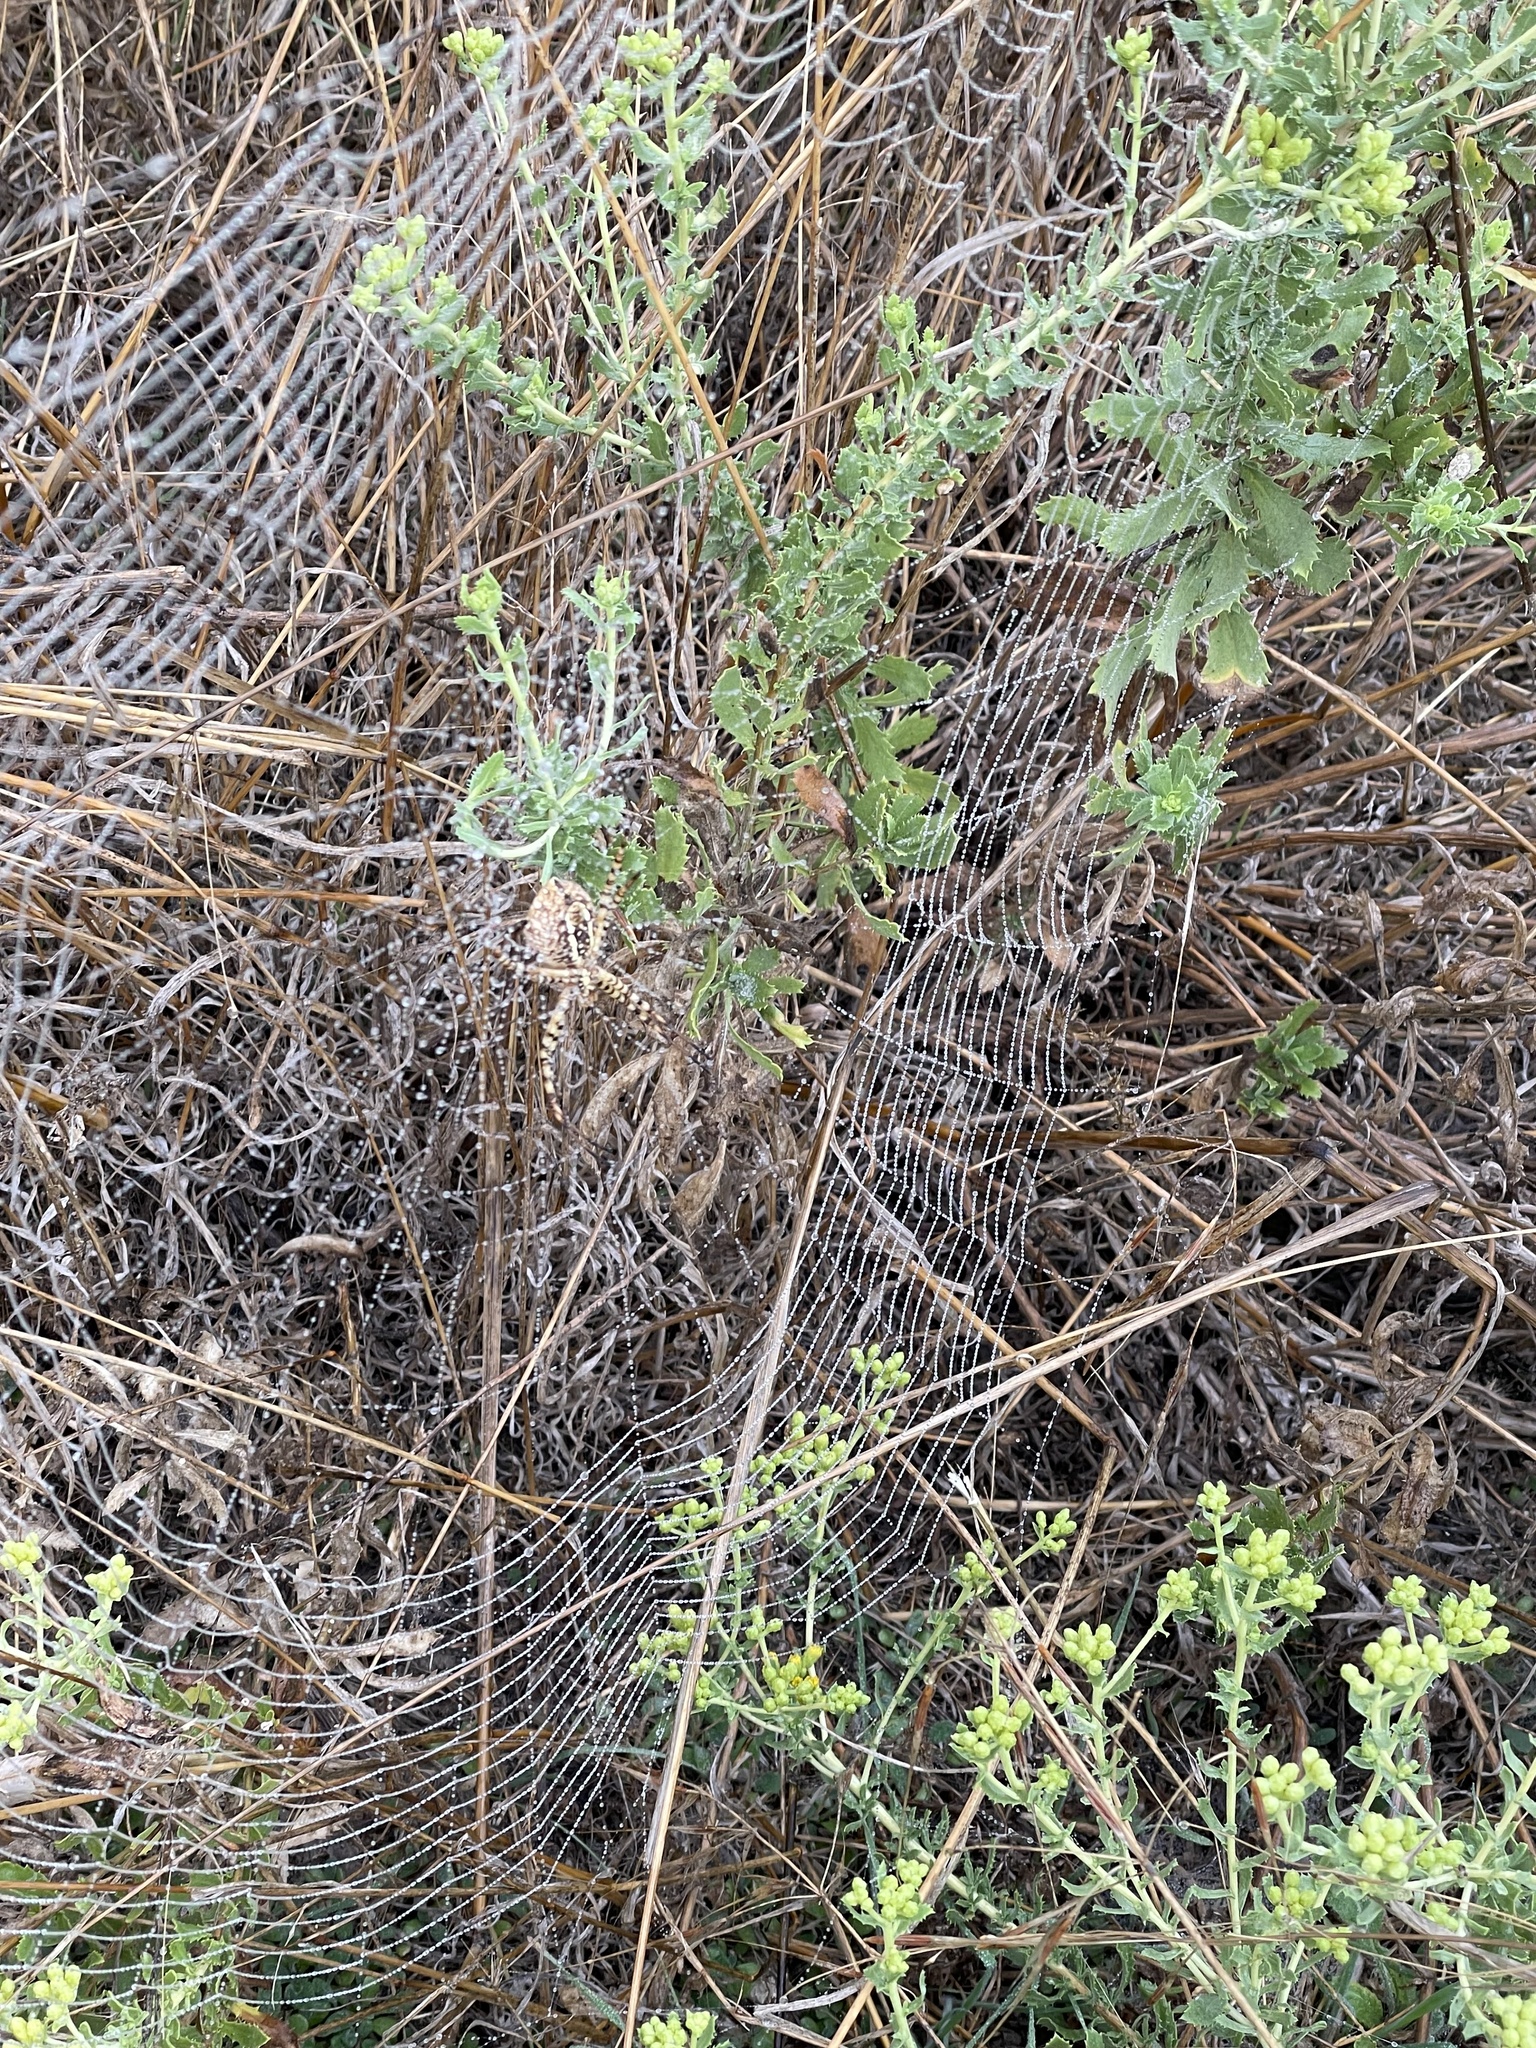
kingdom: Animalia
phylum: Arthropoda
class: Arachnida
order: Araneae
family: Araneidae
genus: Argiope
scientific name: Argiope trifasciata
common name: Banded garden spider
